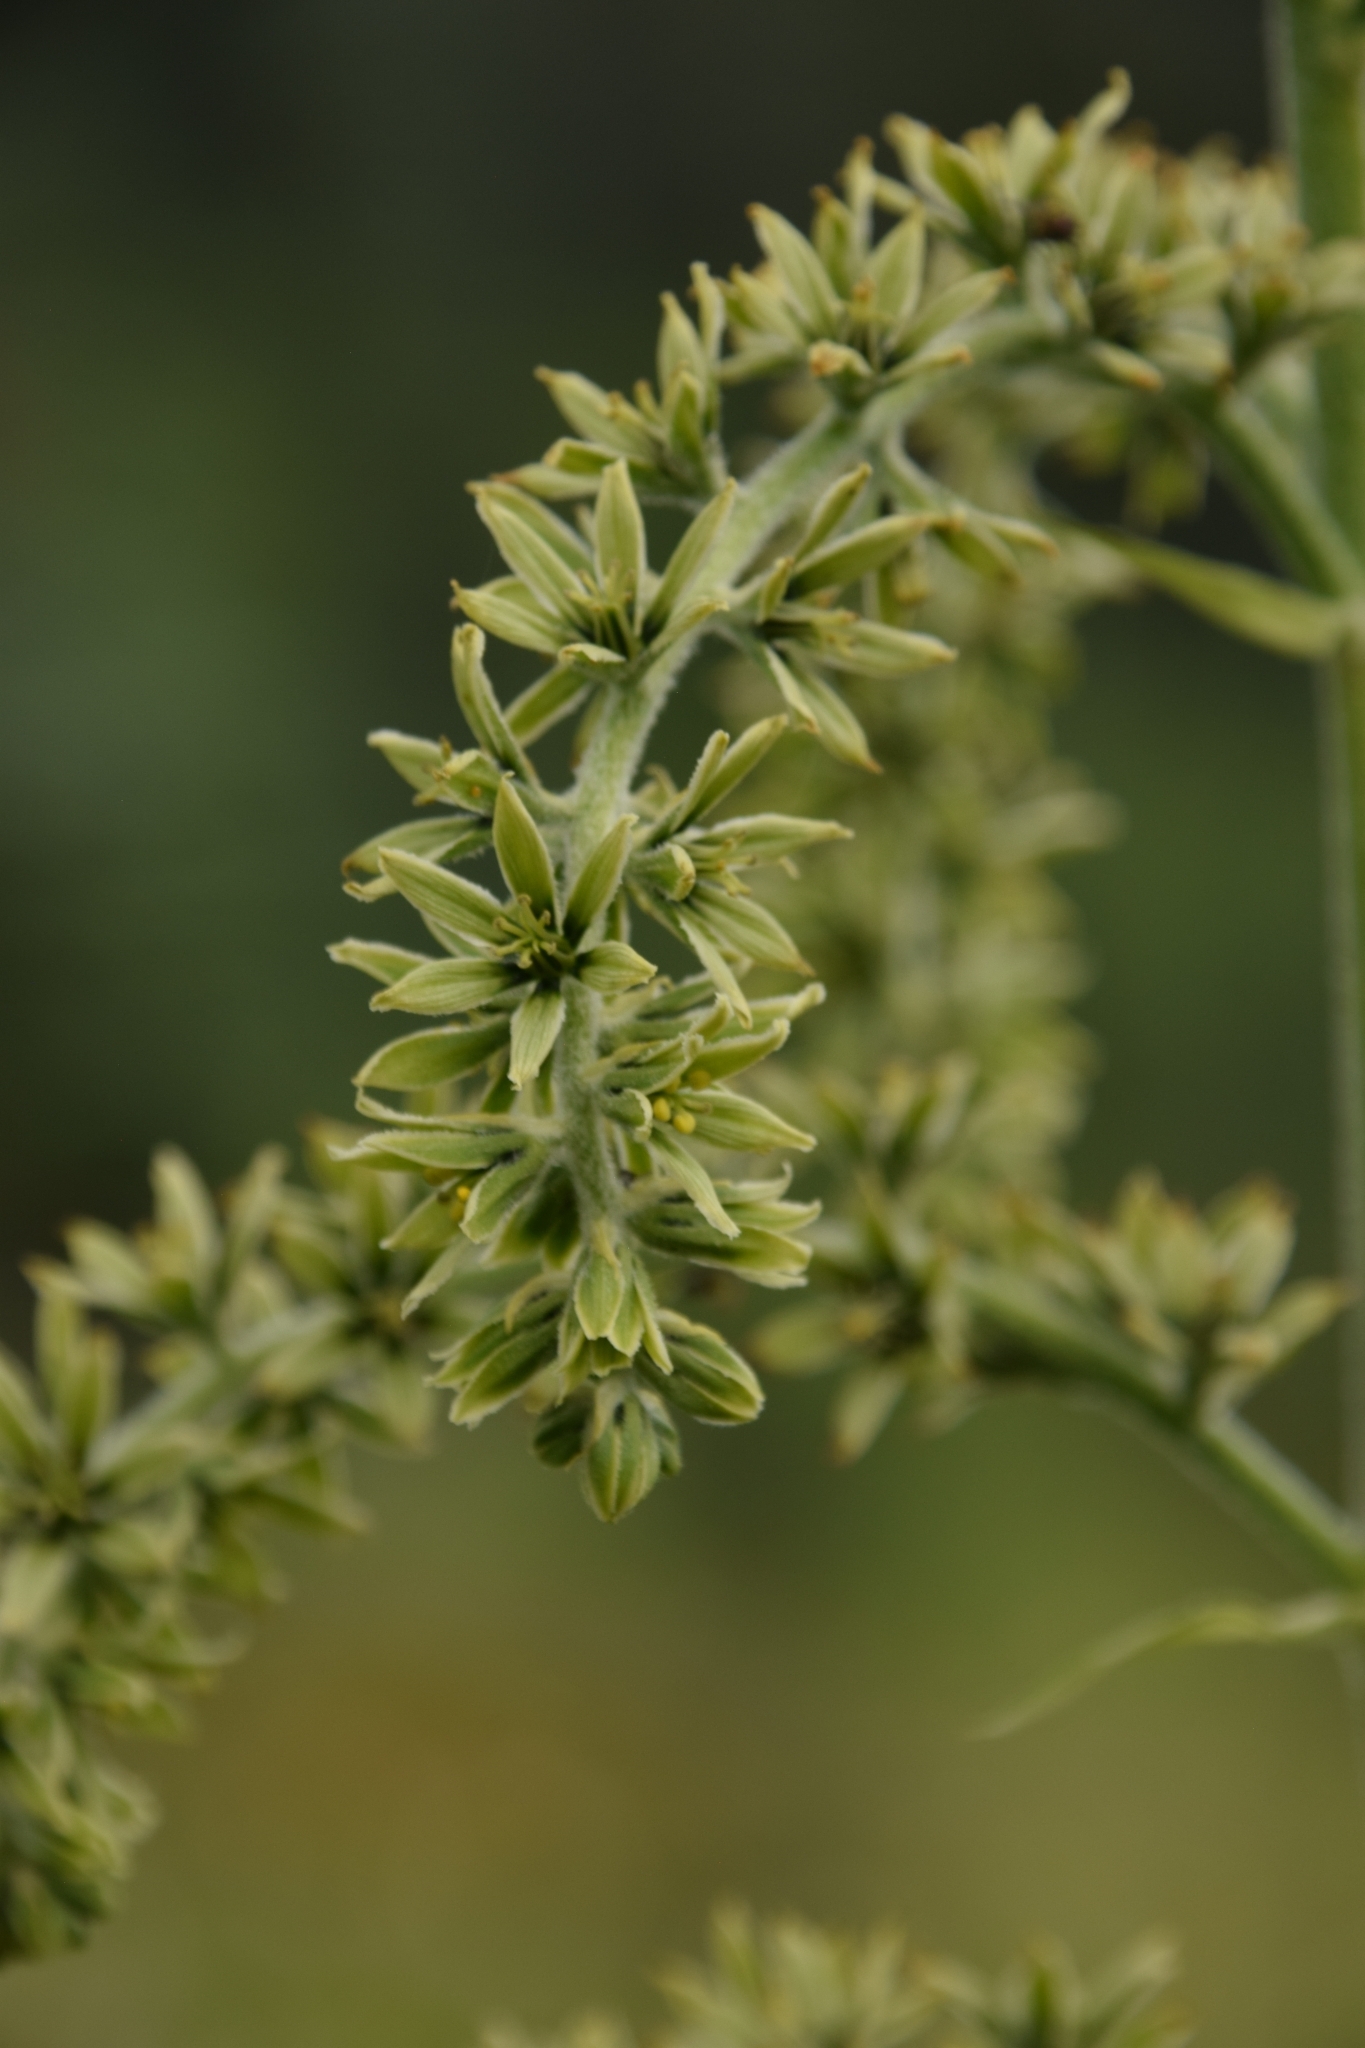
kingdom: Plantae
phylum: Tracheophyta
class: Liliopsida
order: Liliales
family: Melanthiaceae
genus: Veratrum
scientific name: Veratrum viride
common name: American false hellebore
